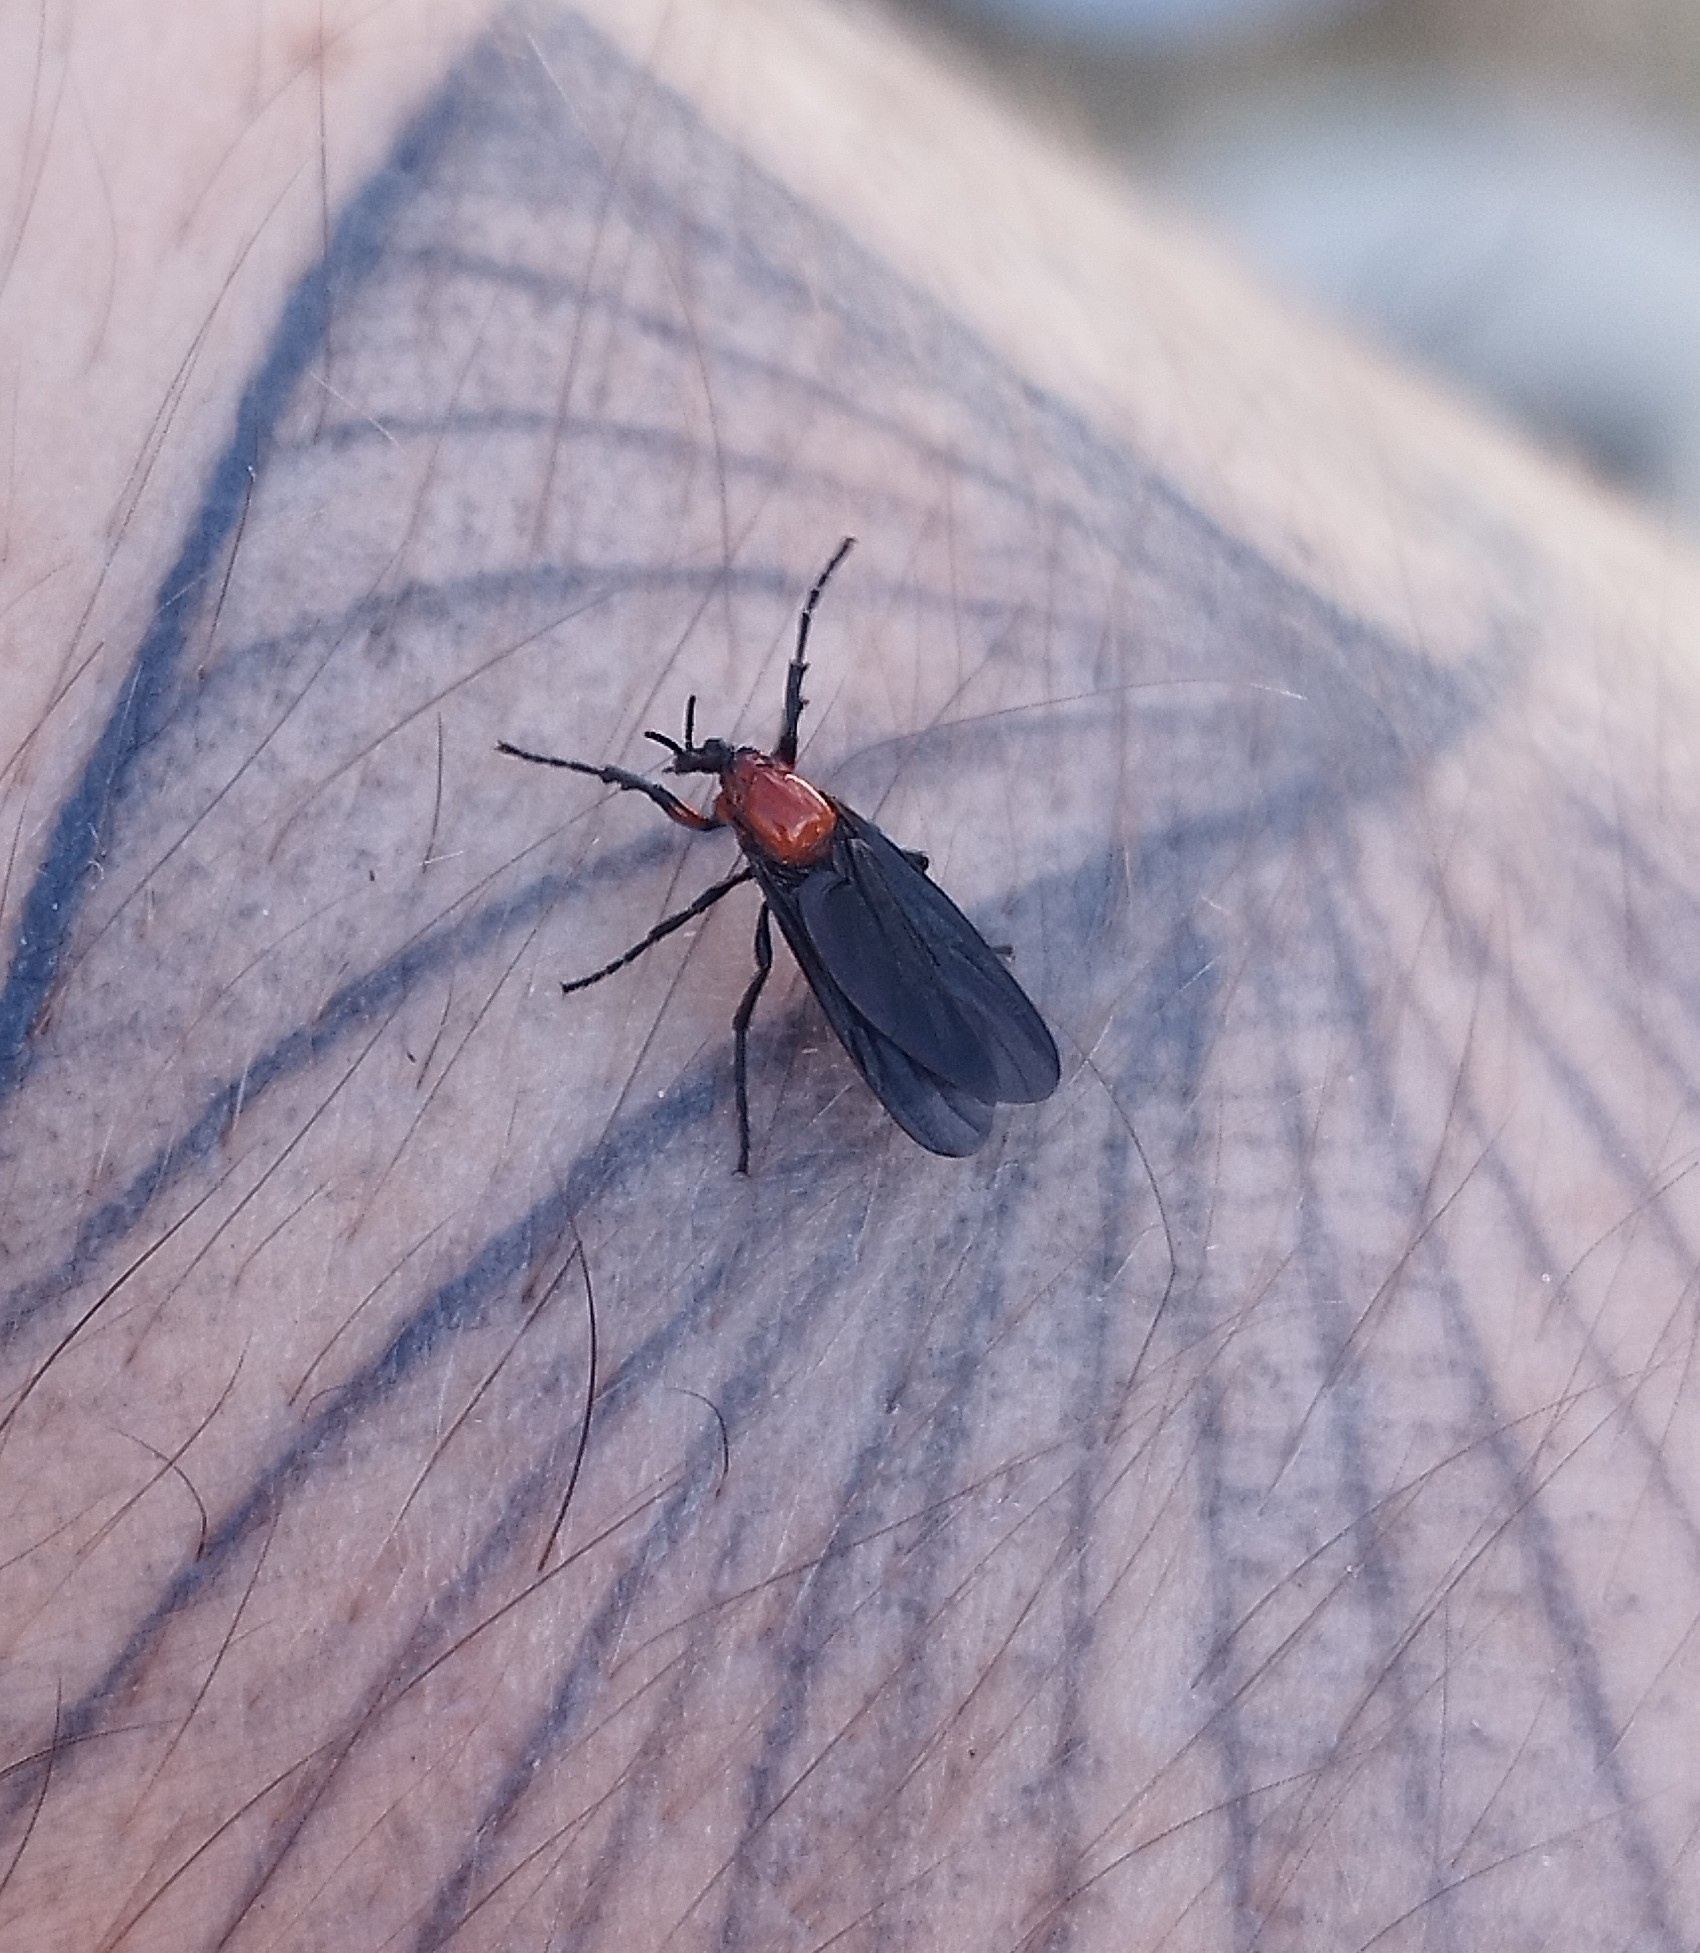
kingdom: Animalia
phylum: Arthropoda
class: Insecta
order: Diptera
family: Bibionidae
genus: Dilophus
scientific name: Dilophus pectoralis
